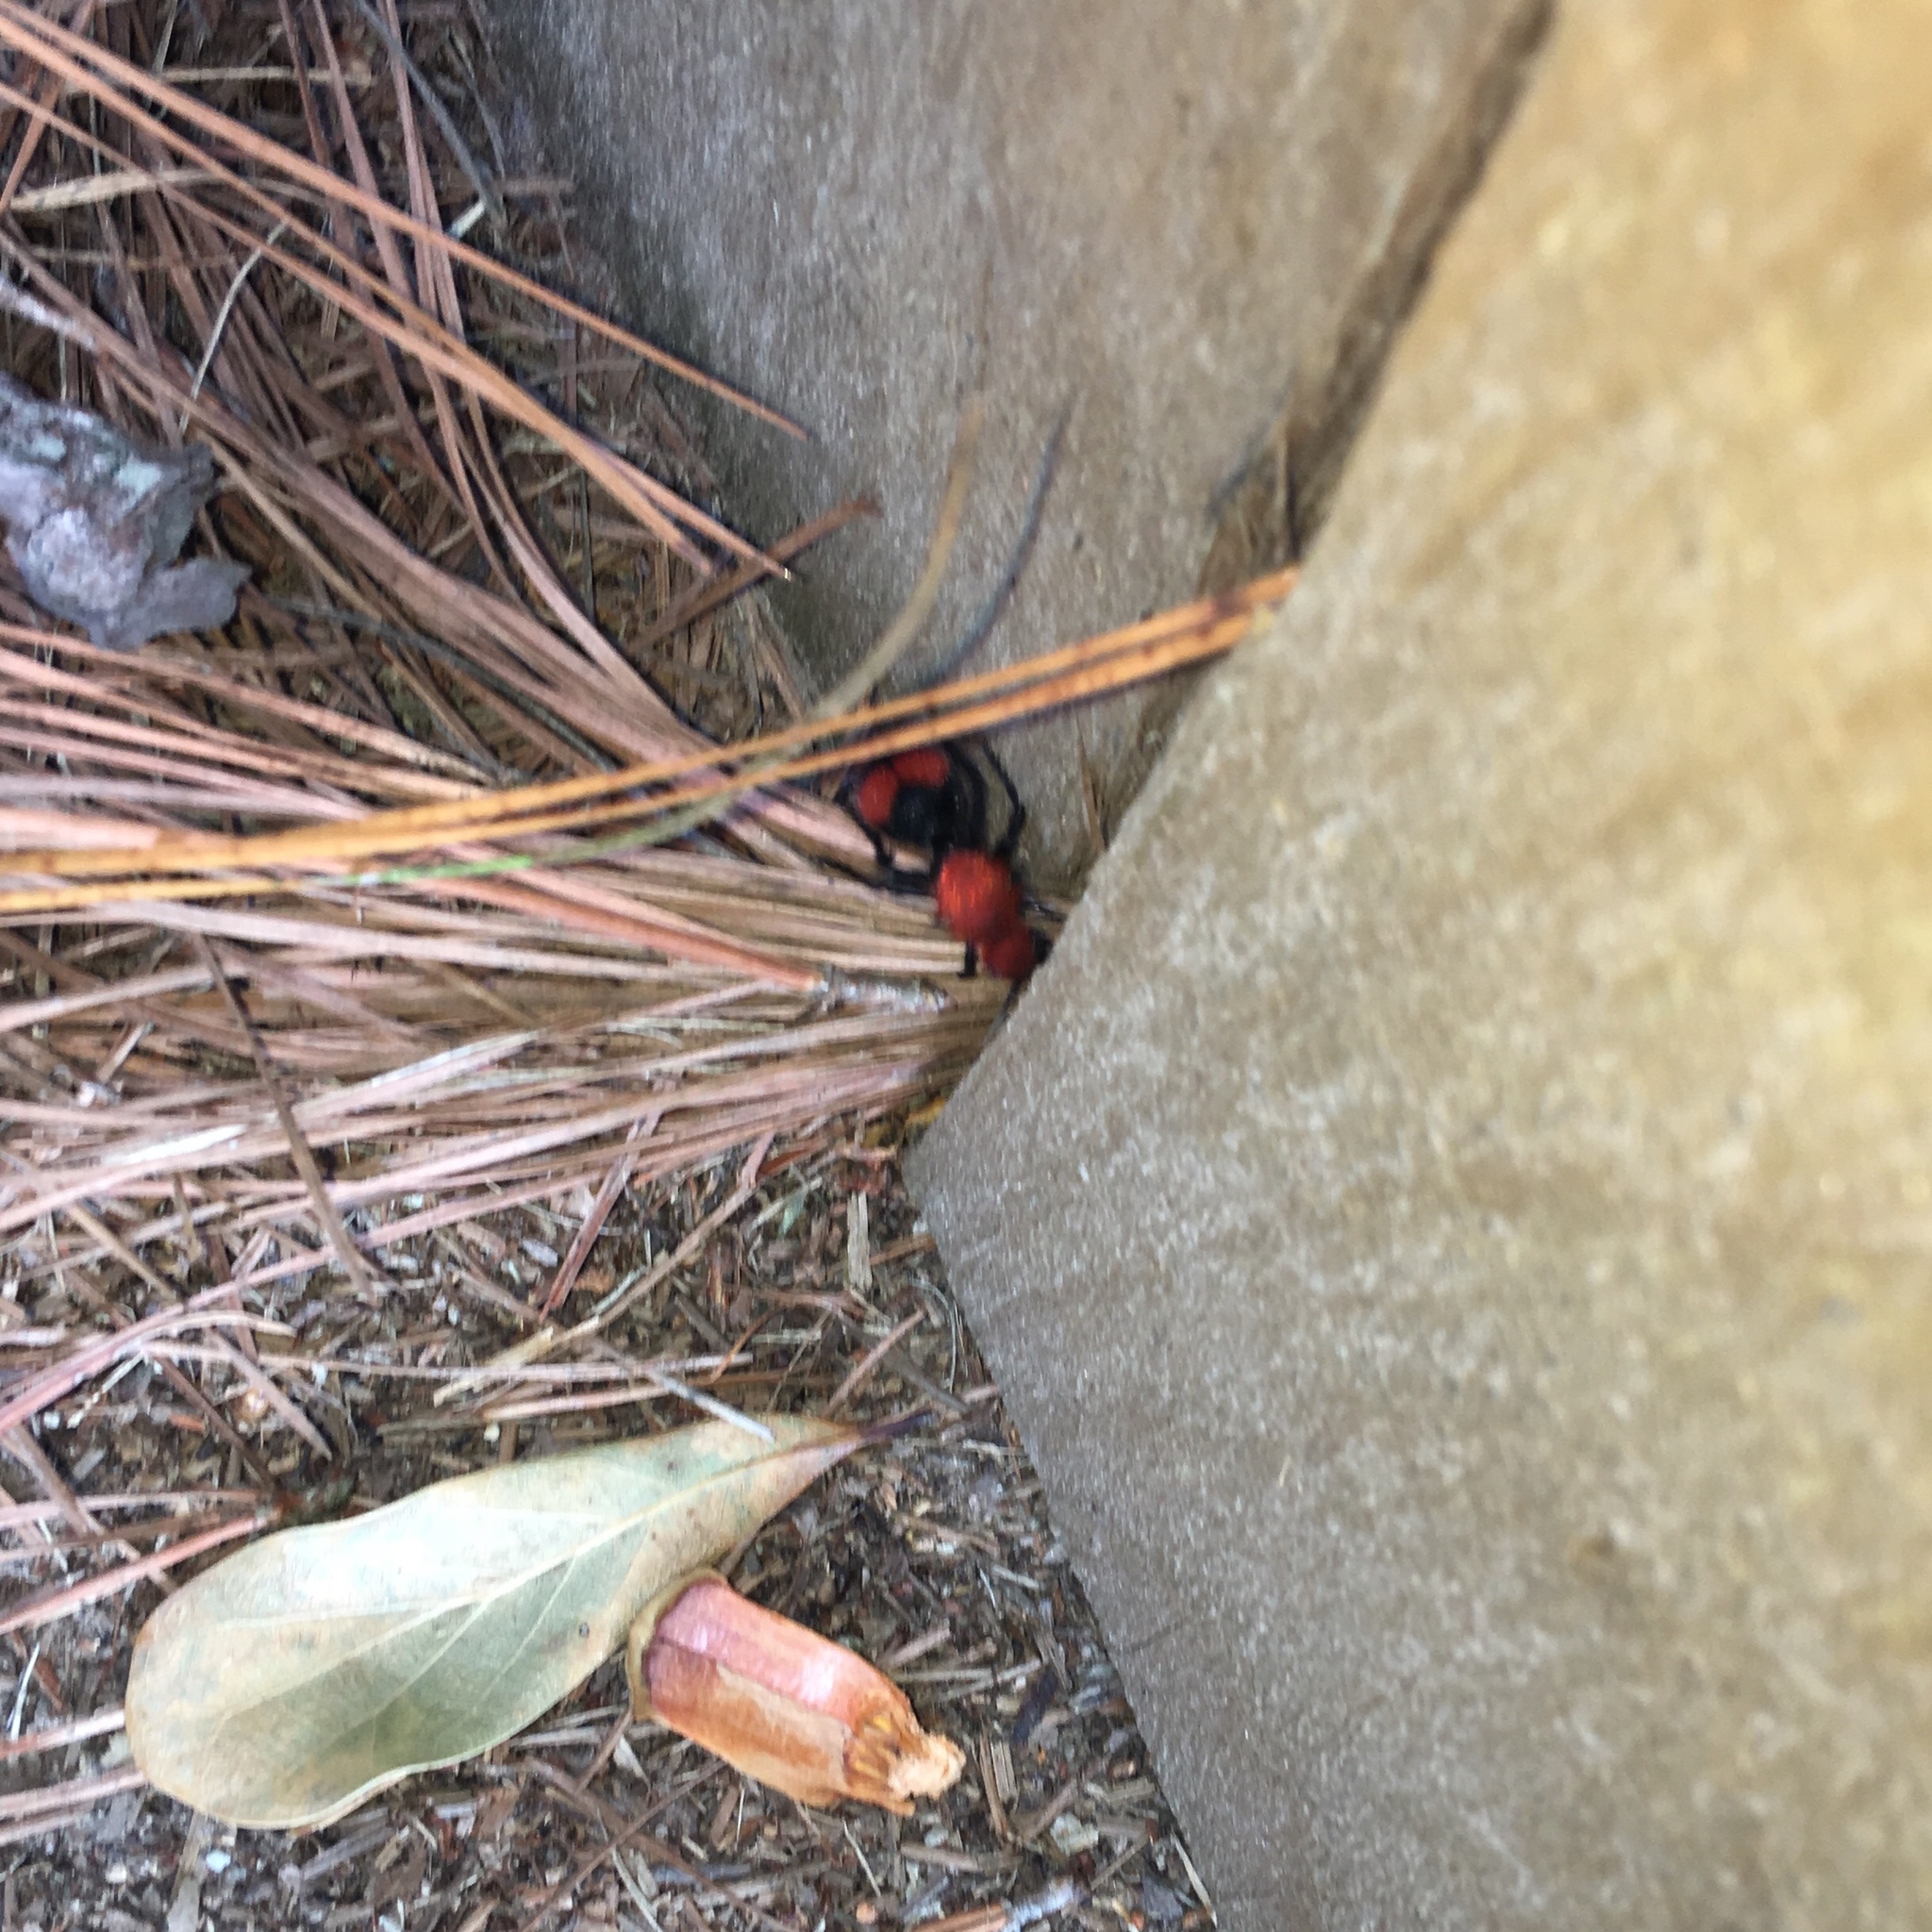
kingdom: Animalia
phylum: Arthropoda
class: Insecta
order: Hymenoptera
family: Mutillidae
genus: Dasymutilla
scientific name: Dasymutilla occidentalis
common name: Common eastern velvet ant
